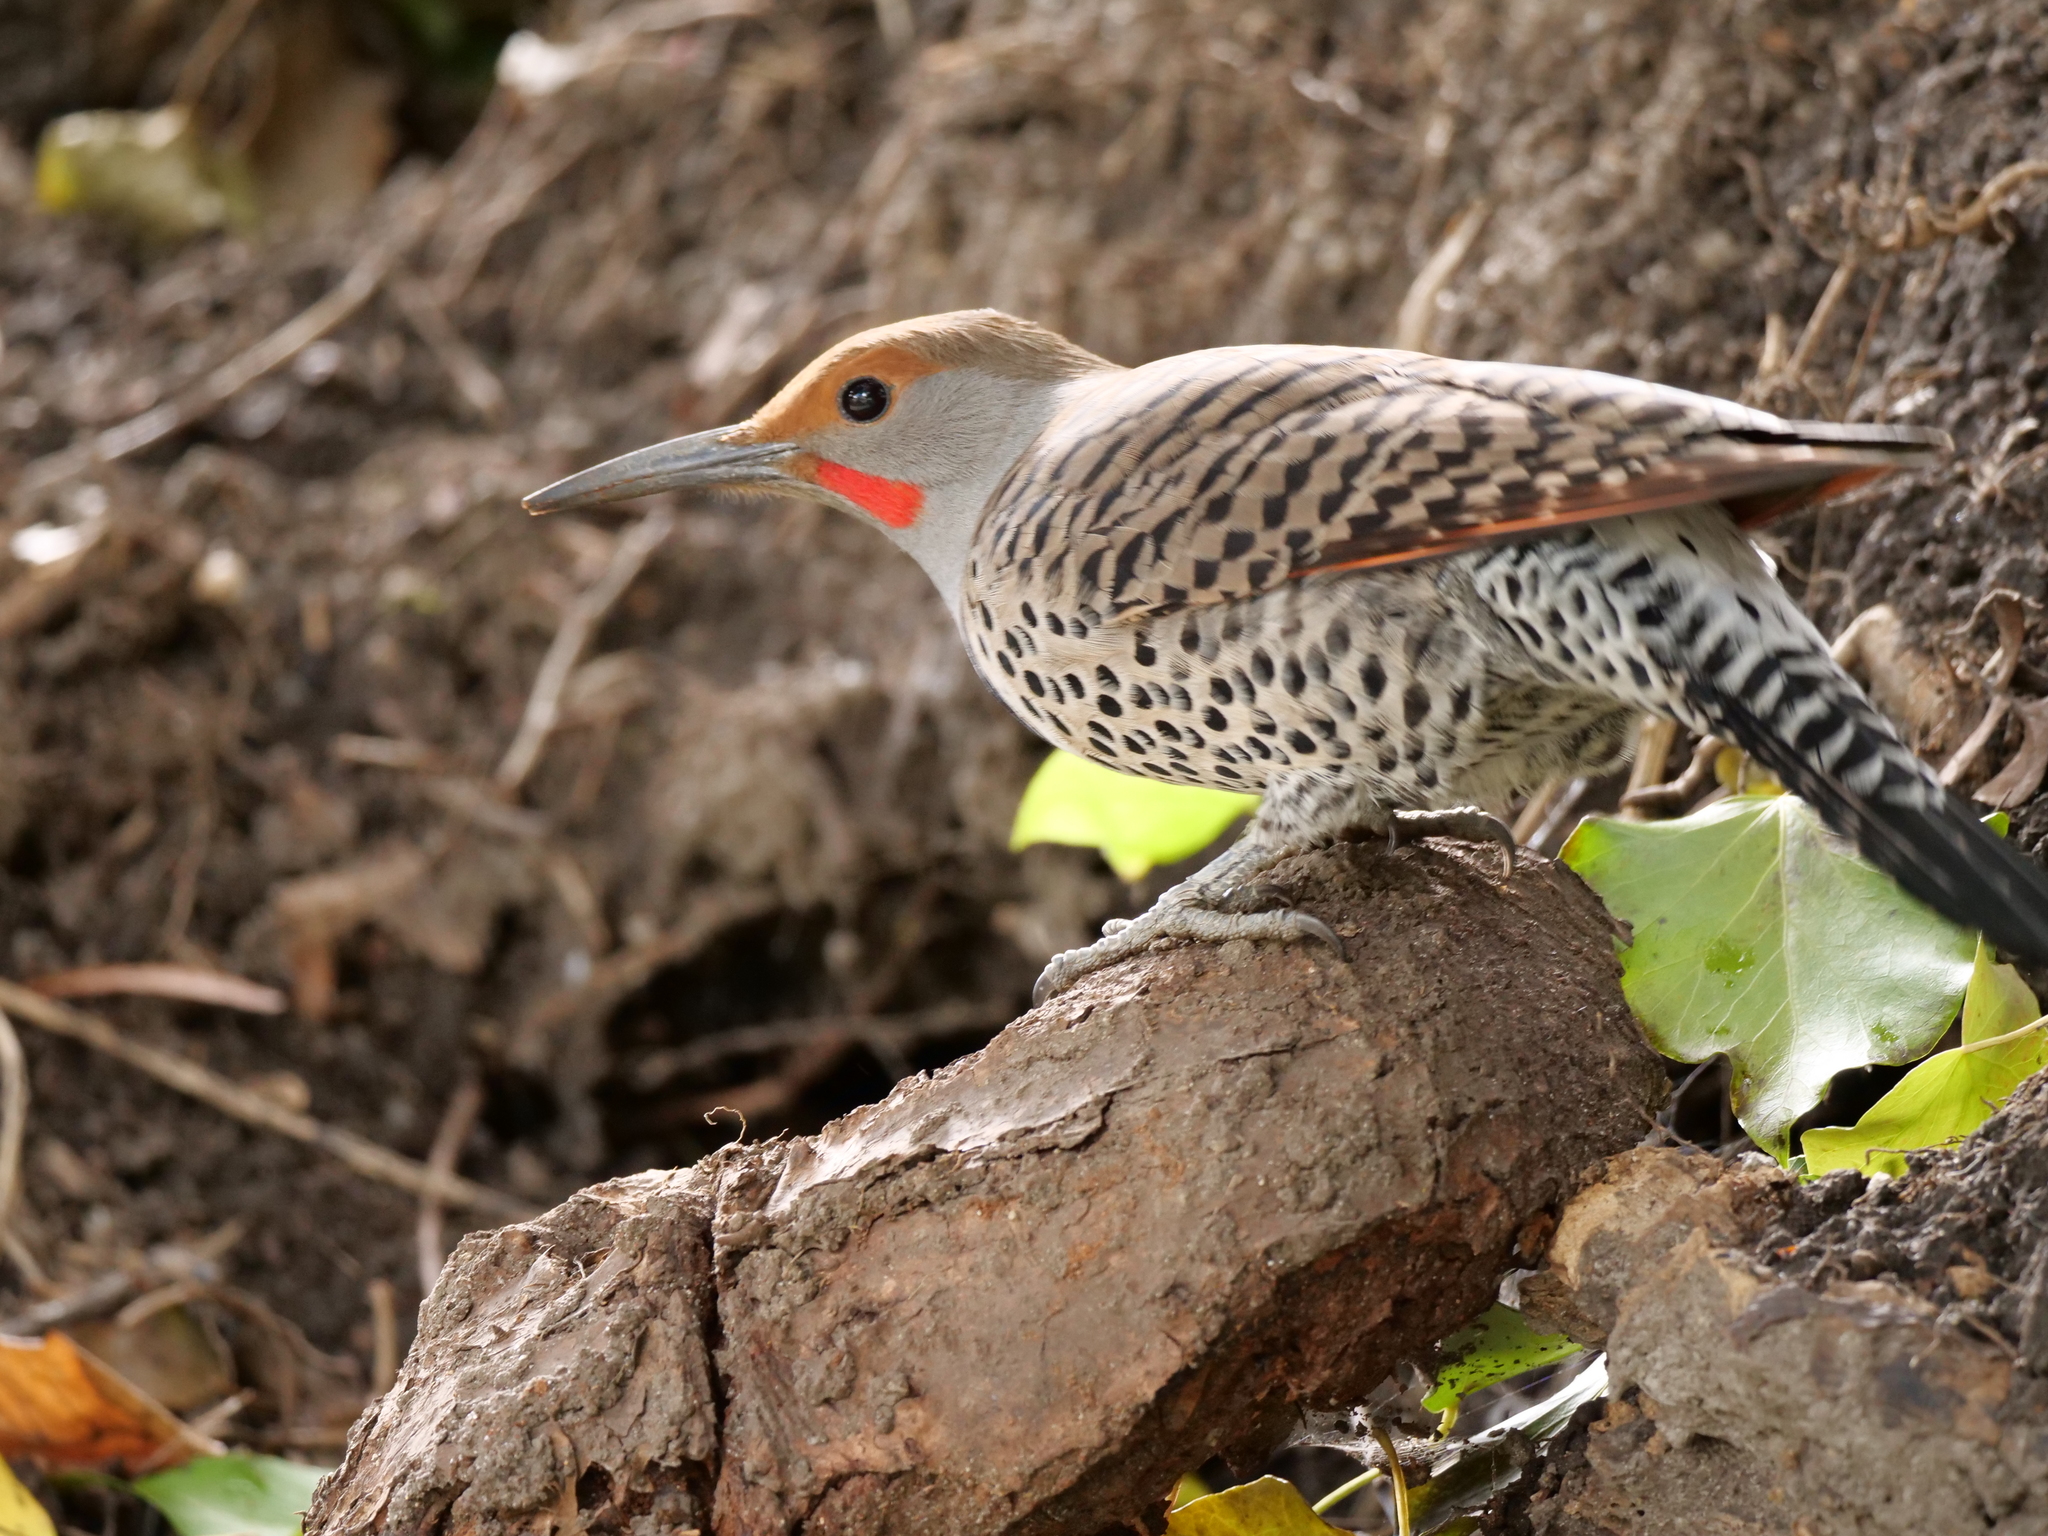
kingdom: Animalia
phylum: Chordata
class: Aves
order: Piciformes
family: Picidae
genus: Colaptes
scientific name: Colaptes auratus
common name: Northern flicker
